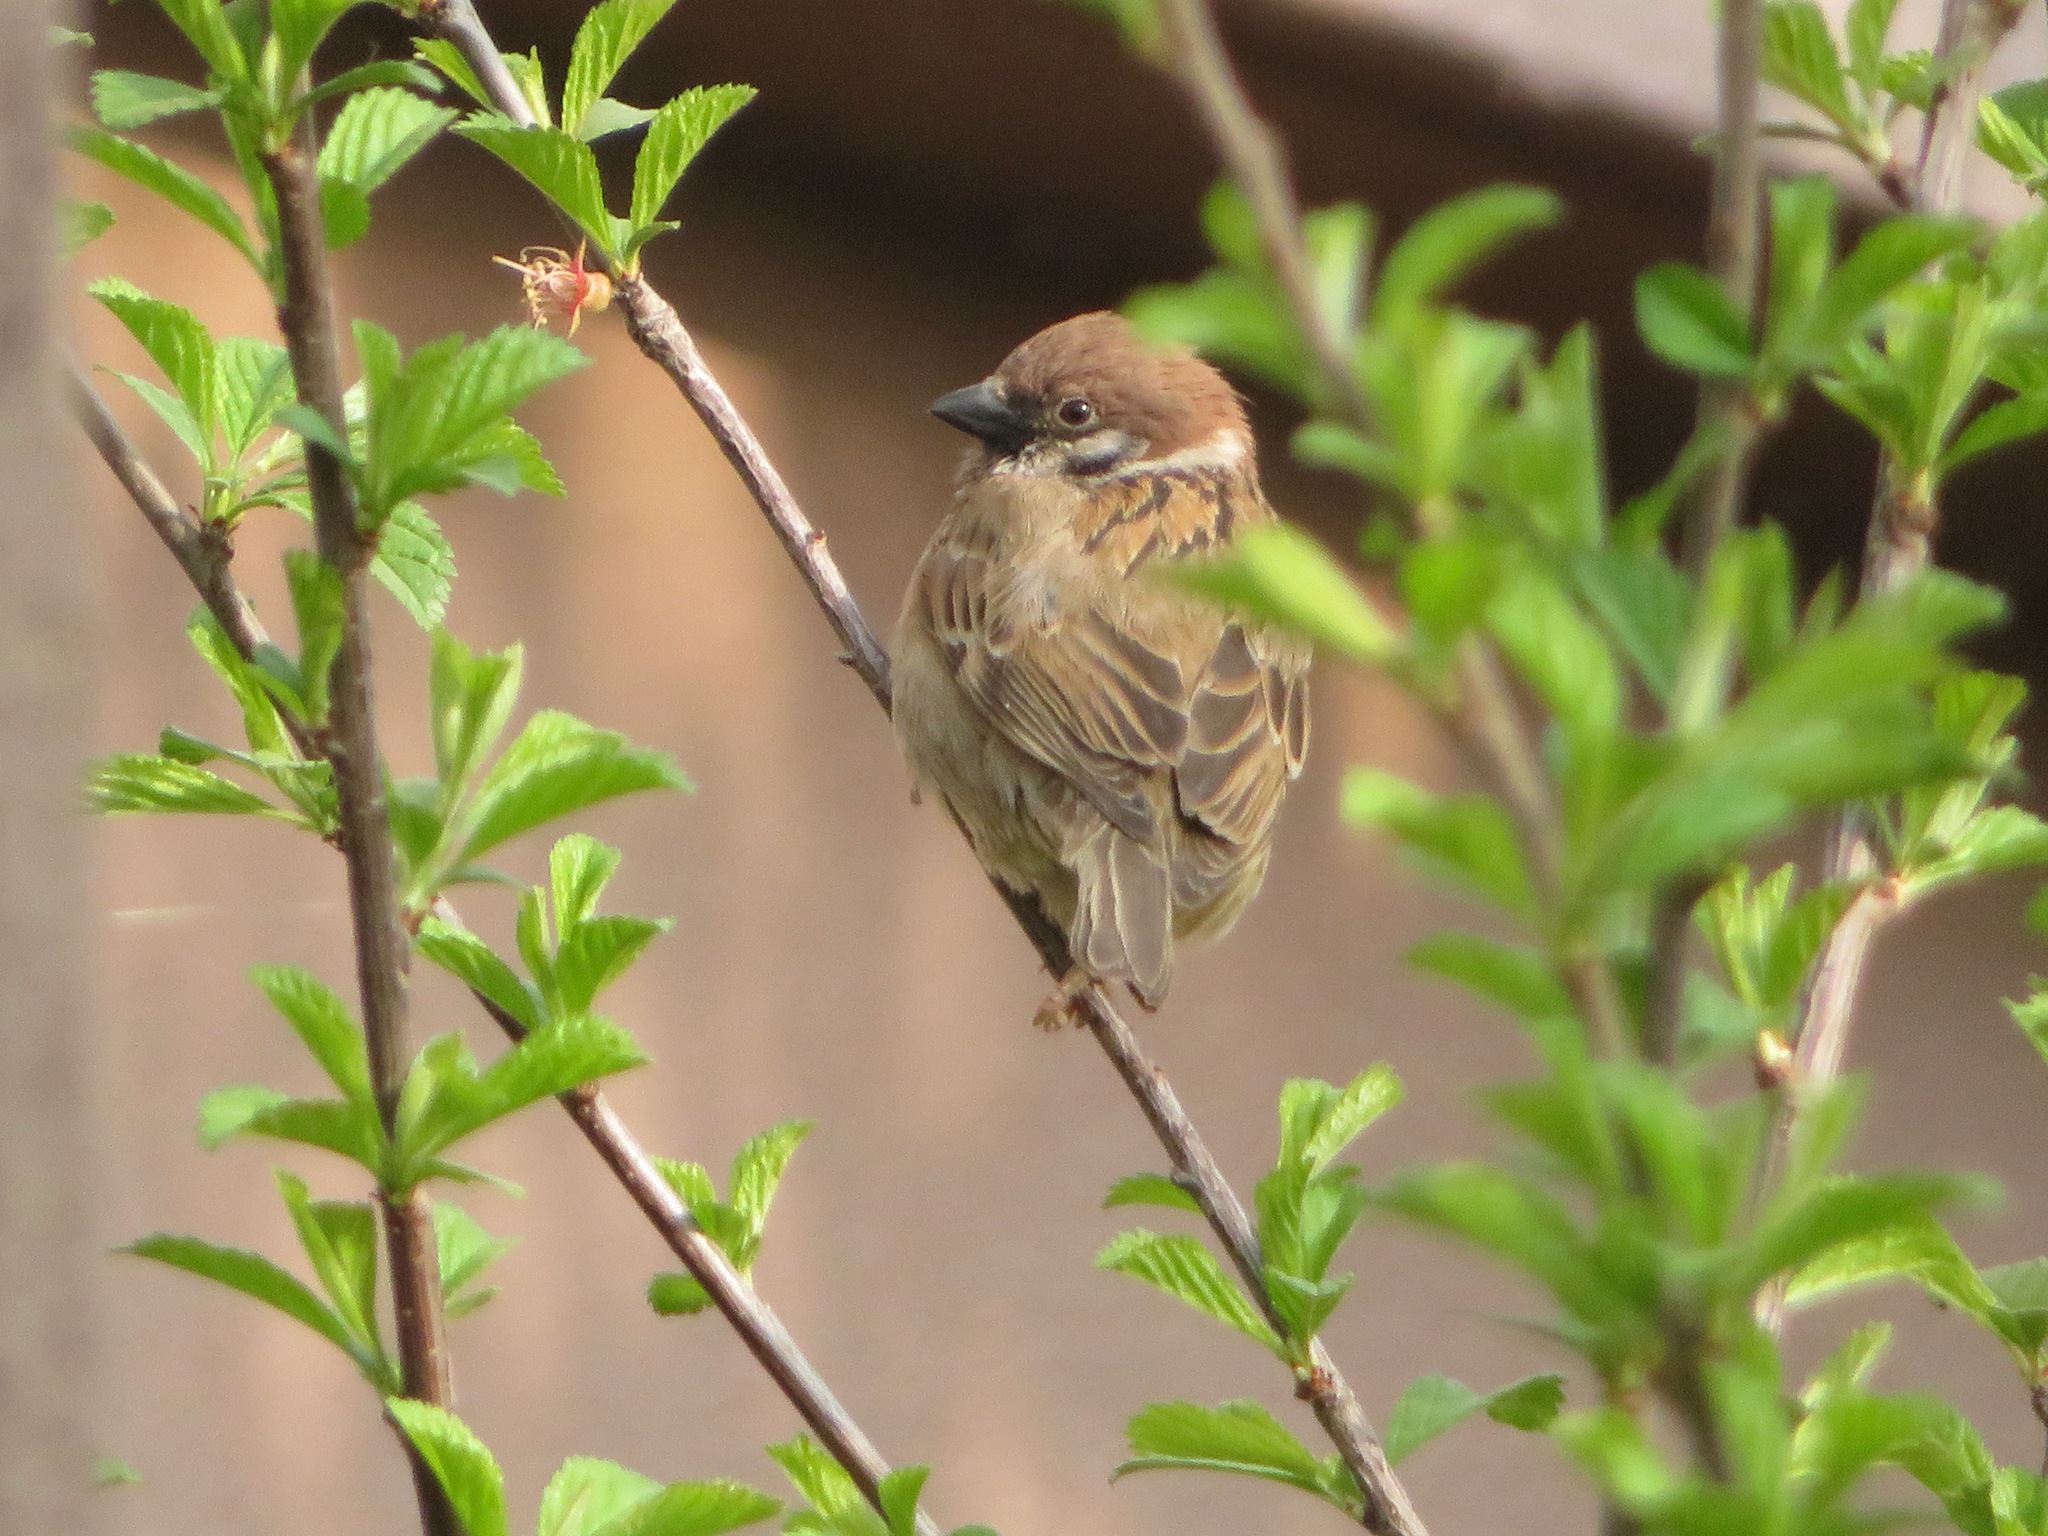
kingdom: Animalia
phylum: Chordata
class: Aves
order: Passeriformes
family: Passeridae
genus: Passer
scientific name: Passer montanus
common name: Eurasian tree sparrow
